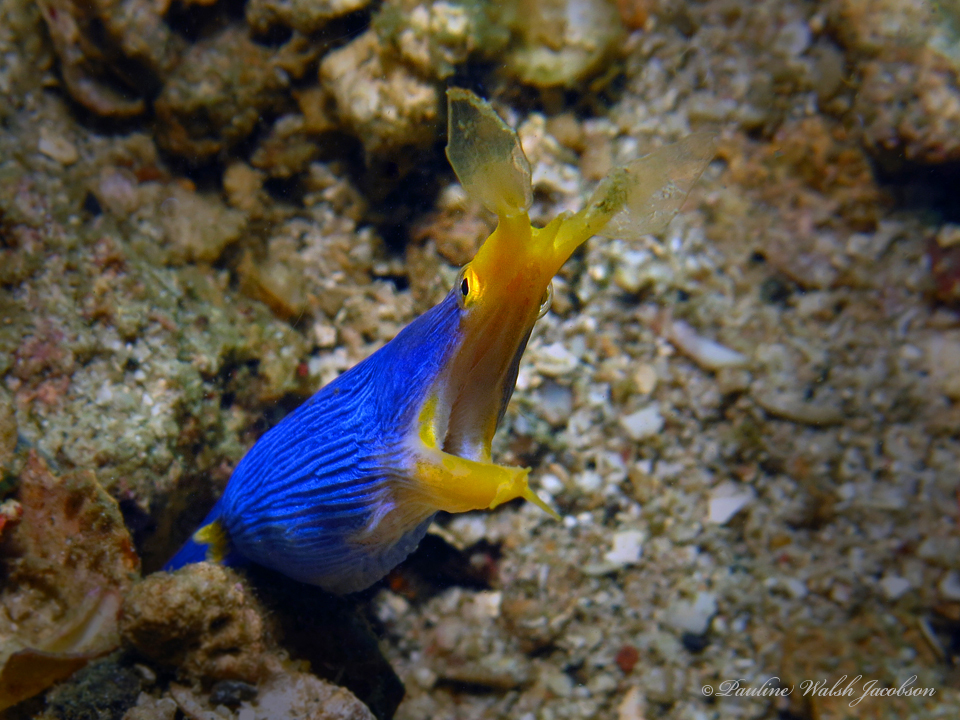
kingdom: Animalia
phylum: Chordata
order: Anguilliformes
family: Muraenidae
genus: Rhinomuraena
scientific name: Rhinomuraena quaesita
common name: Ribbon eel
